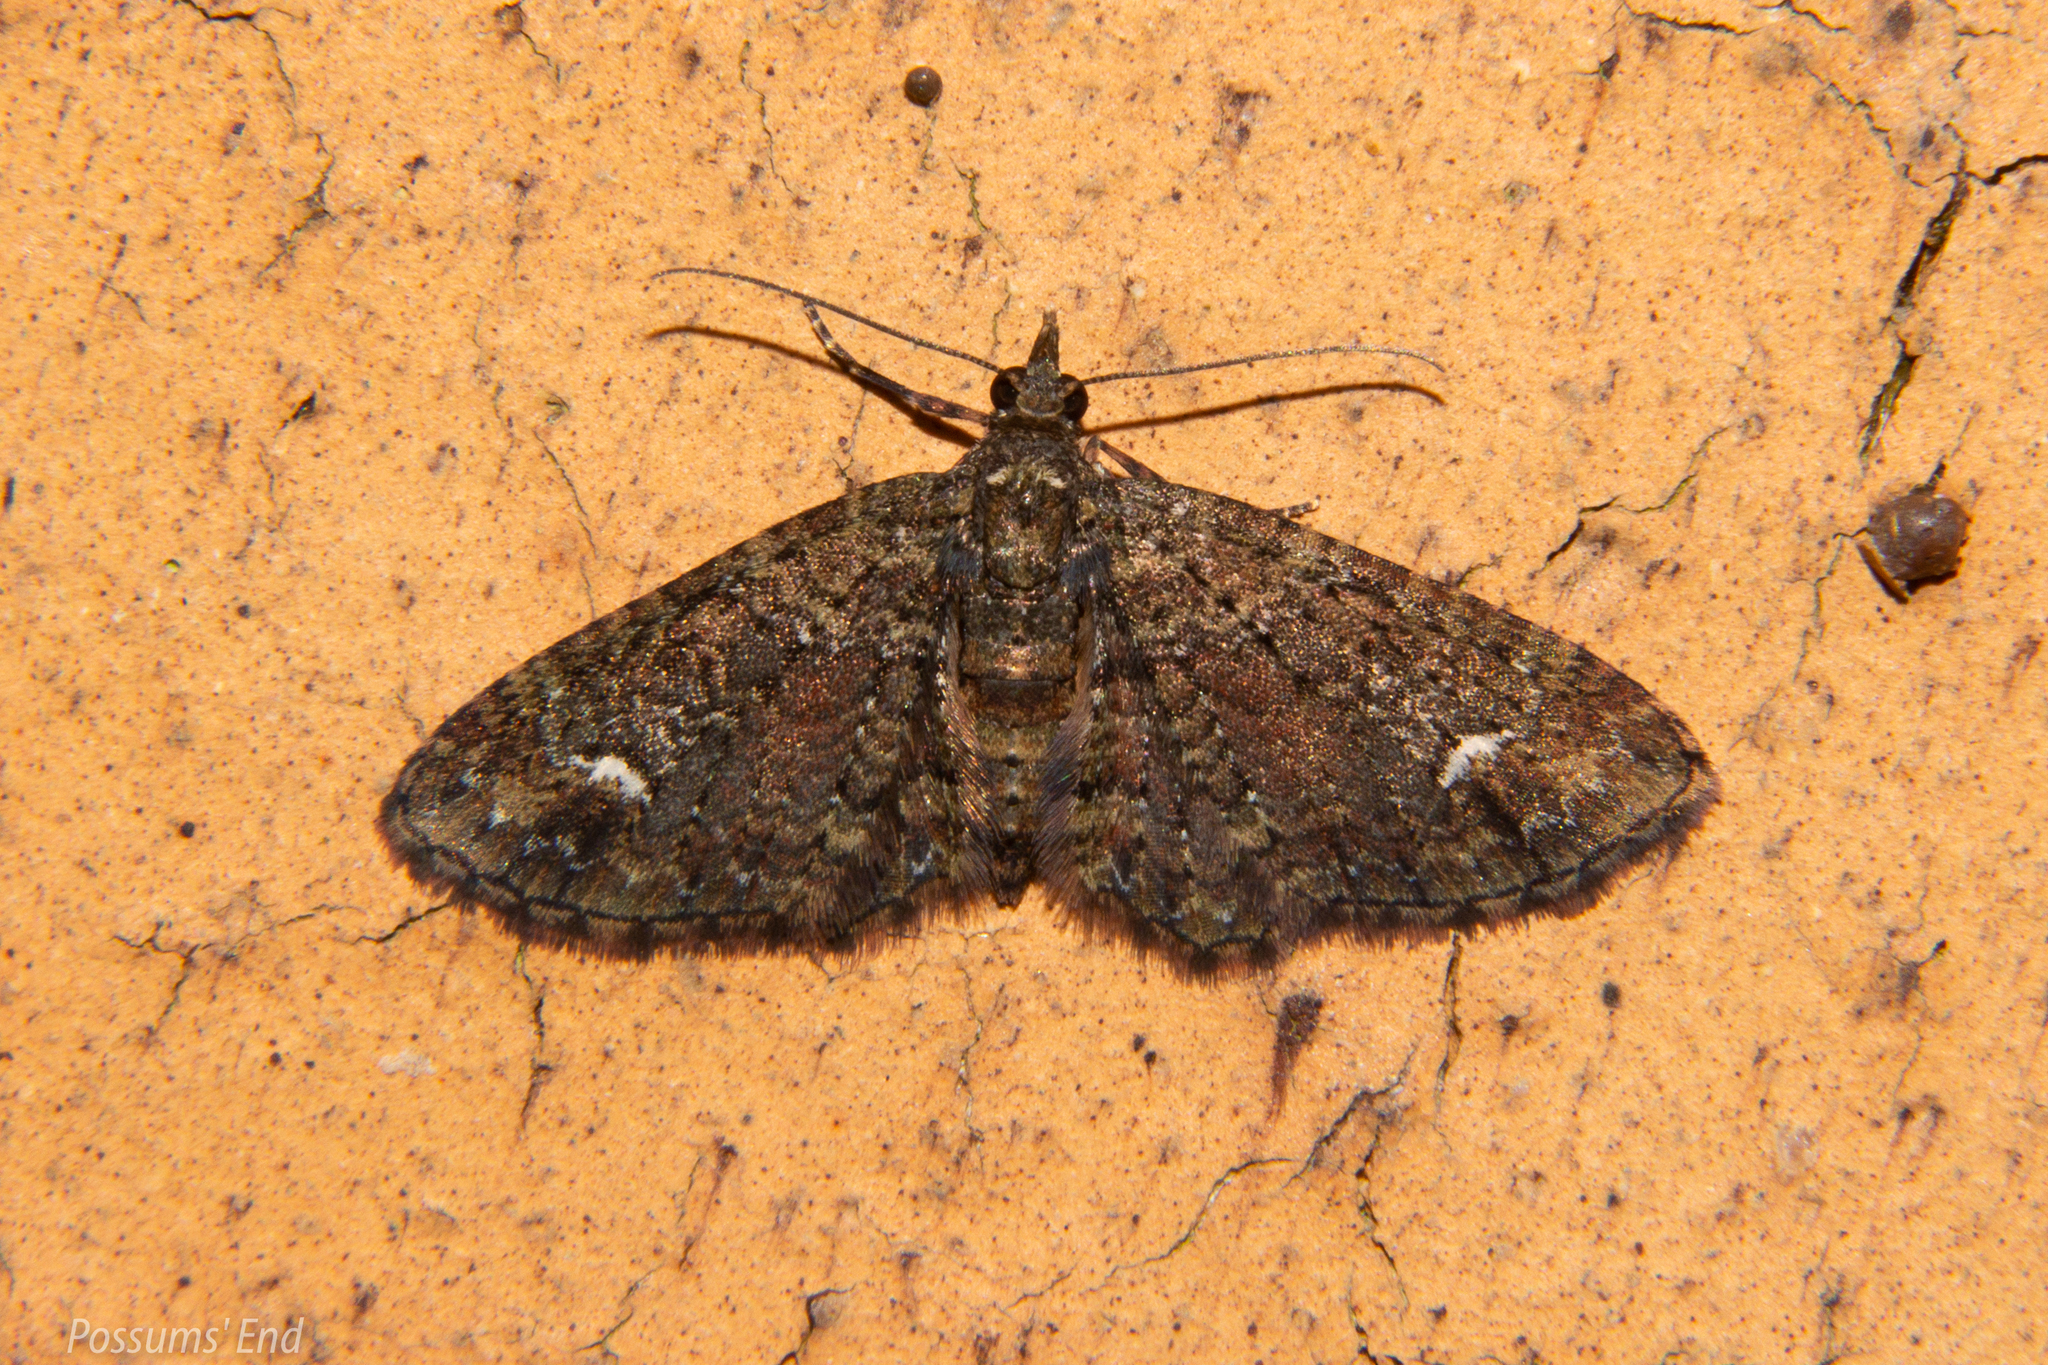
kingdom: Animalia
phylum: Arthropoda
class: Insecta
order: Lepidoptera
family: Geometridae
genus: Pasiphilodes
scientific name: Pasiphilodes testulata
